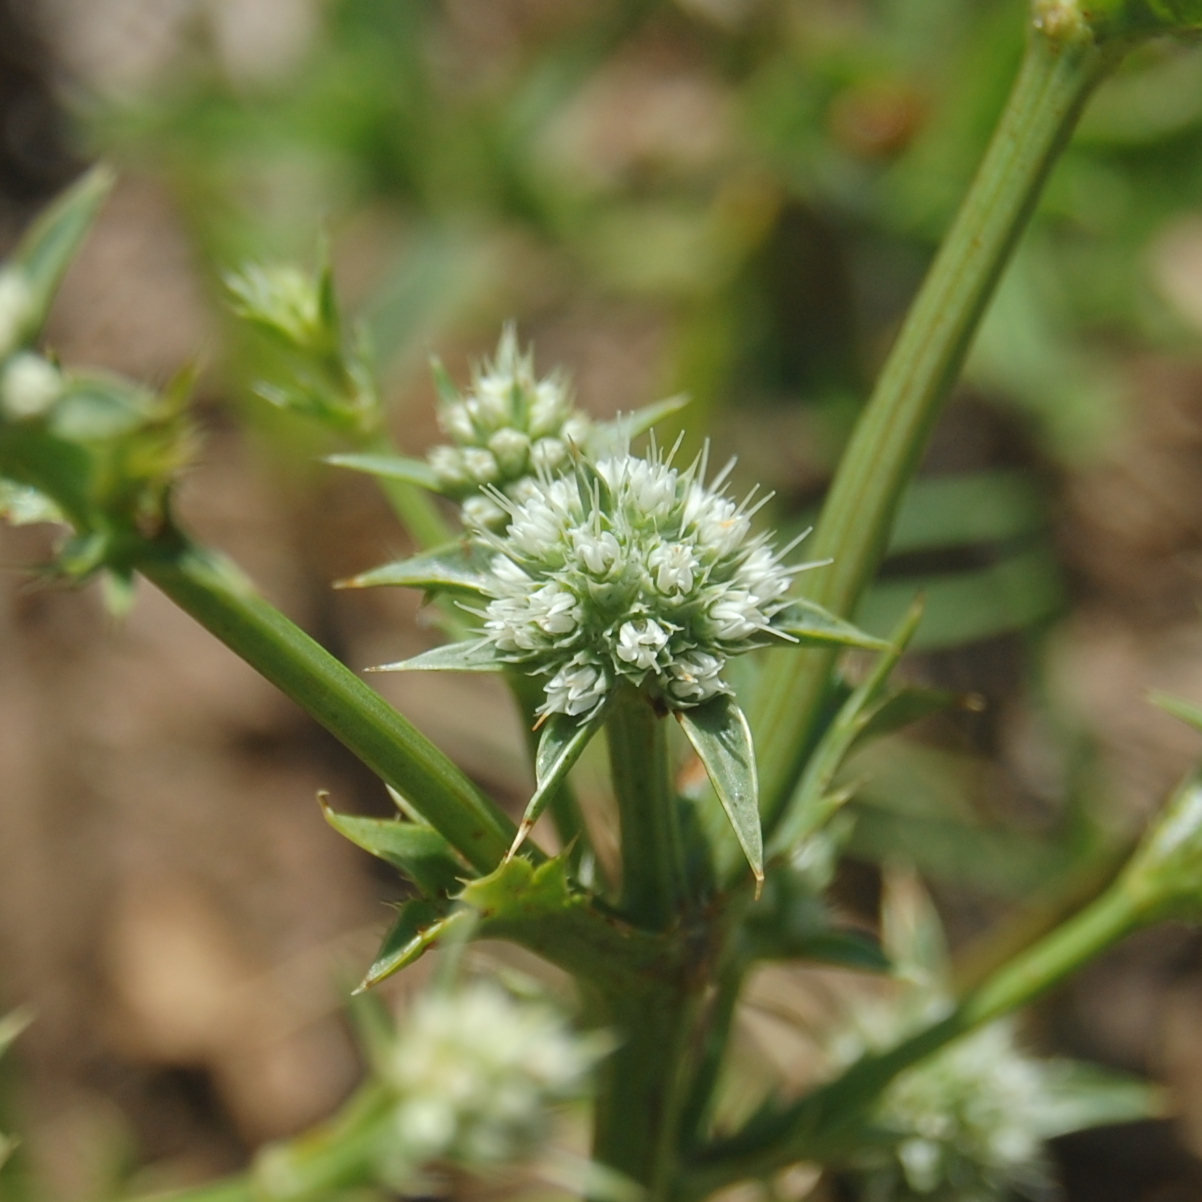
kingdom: Plantae
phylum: Tracheophyta
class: Magnoliopsida
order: Apiales
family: Apiaceae
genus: Eryngium
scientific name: Eryngium nudicaule
